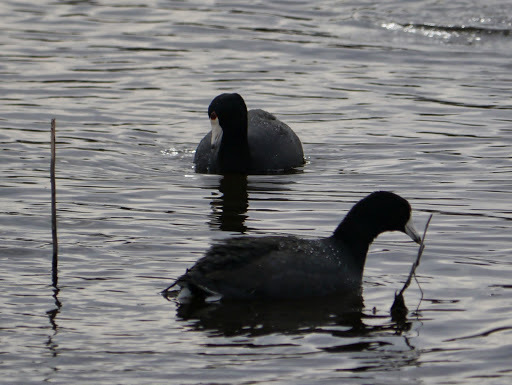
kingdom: Animalia
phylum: Chordata
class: Aves
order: Gruiformes
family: Rallidae
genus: Fulica
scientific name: Fulica americana
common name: American coot
